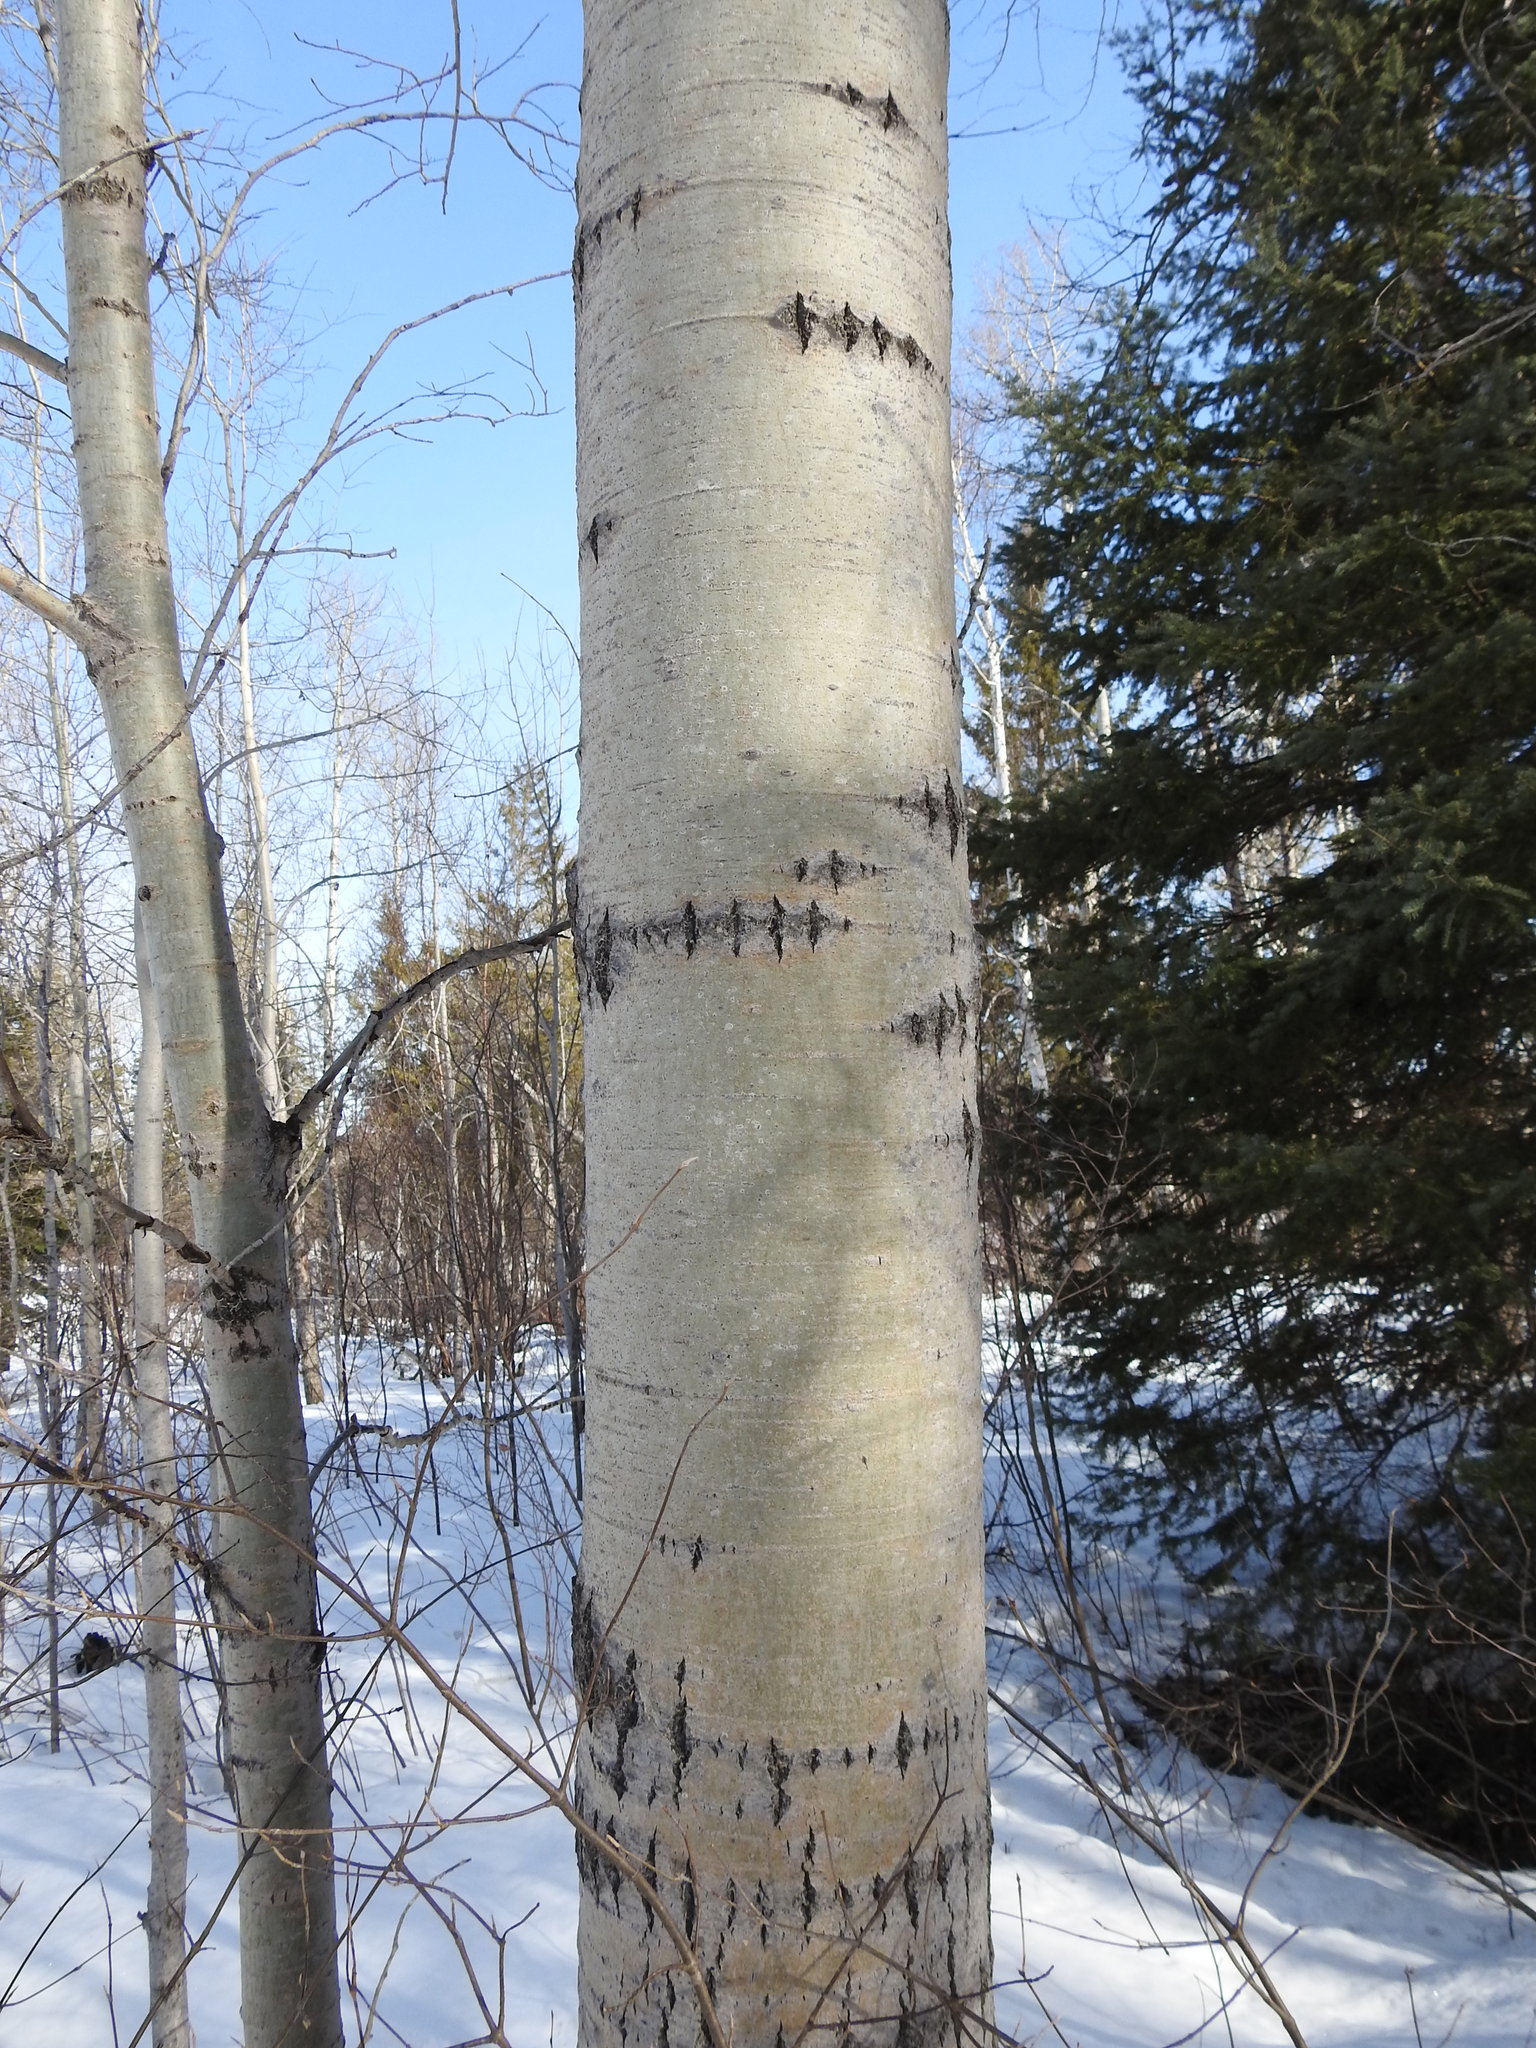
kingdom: Plantae
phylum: Tracheophyta
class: Magnoliopsida
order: Malpighiales
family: Salicaceae
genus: Populus
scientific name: Populus tremuloides
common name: Quaking aspen
